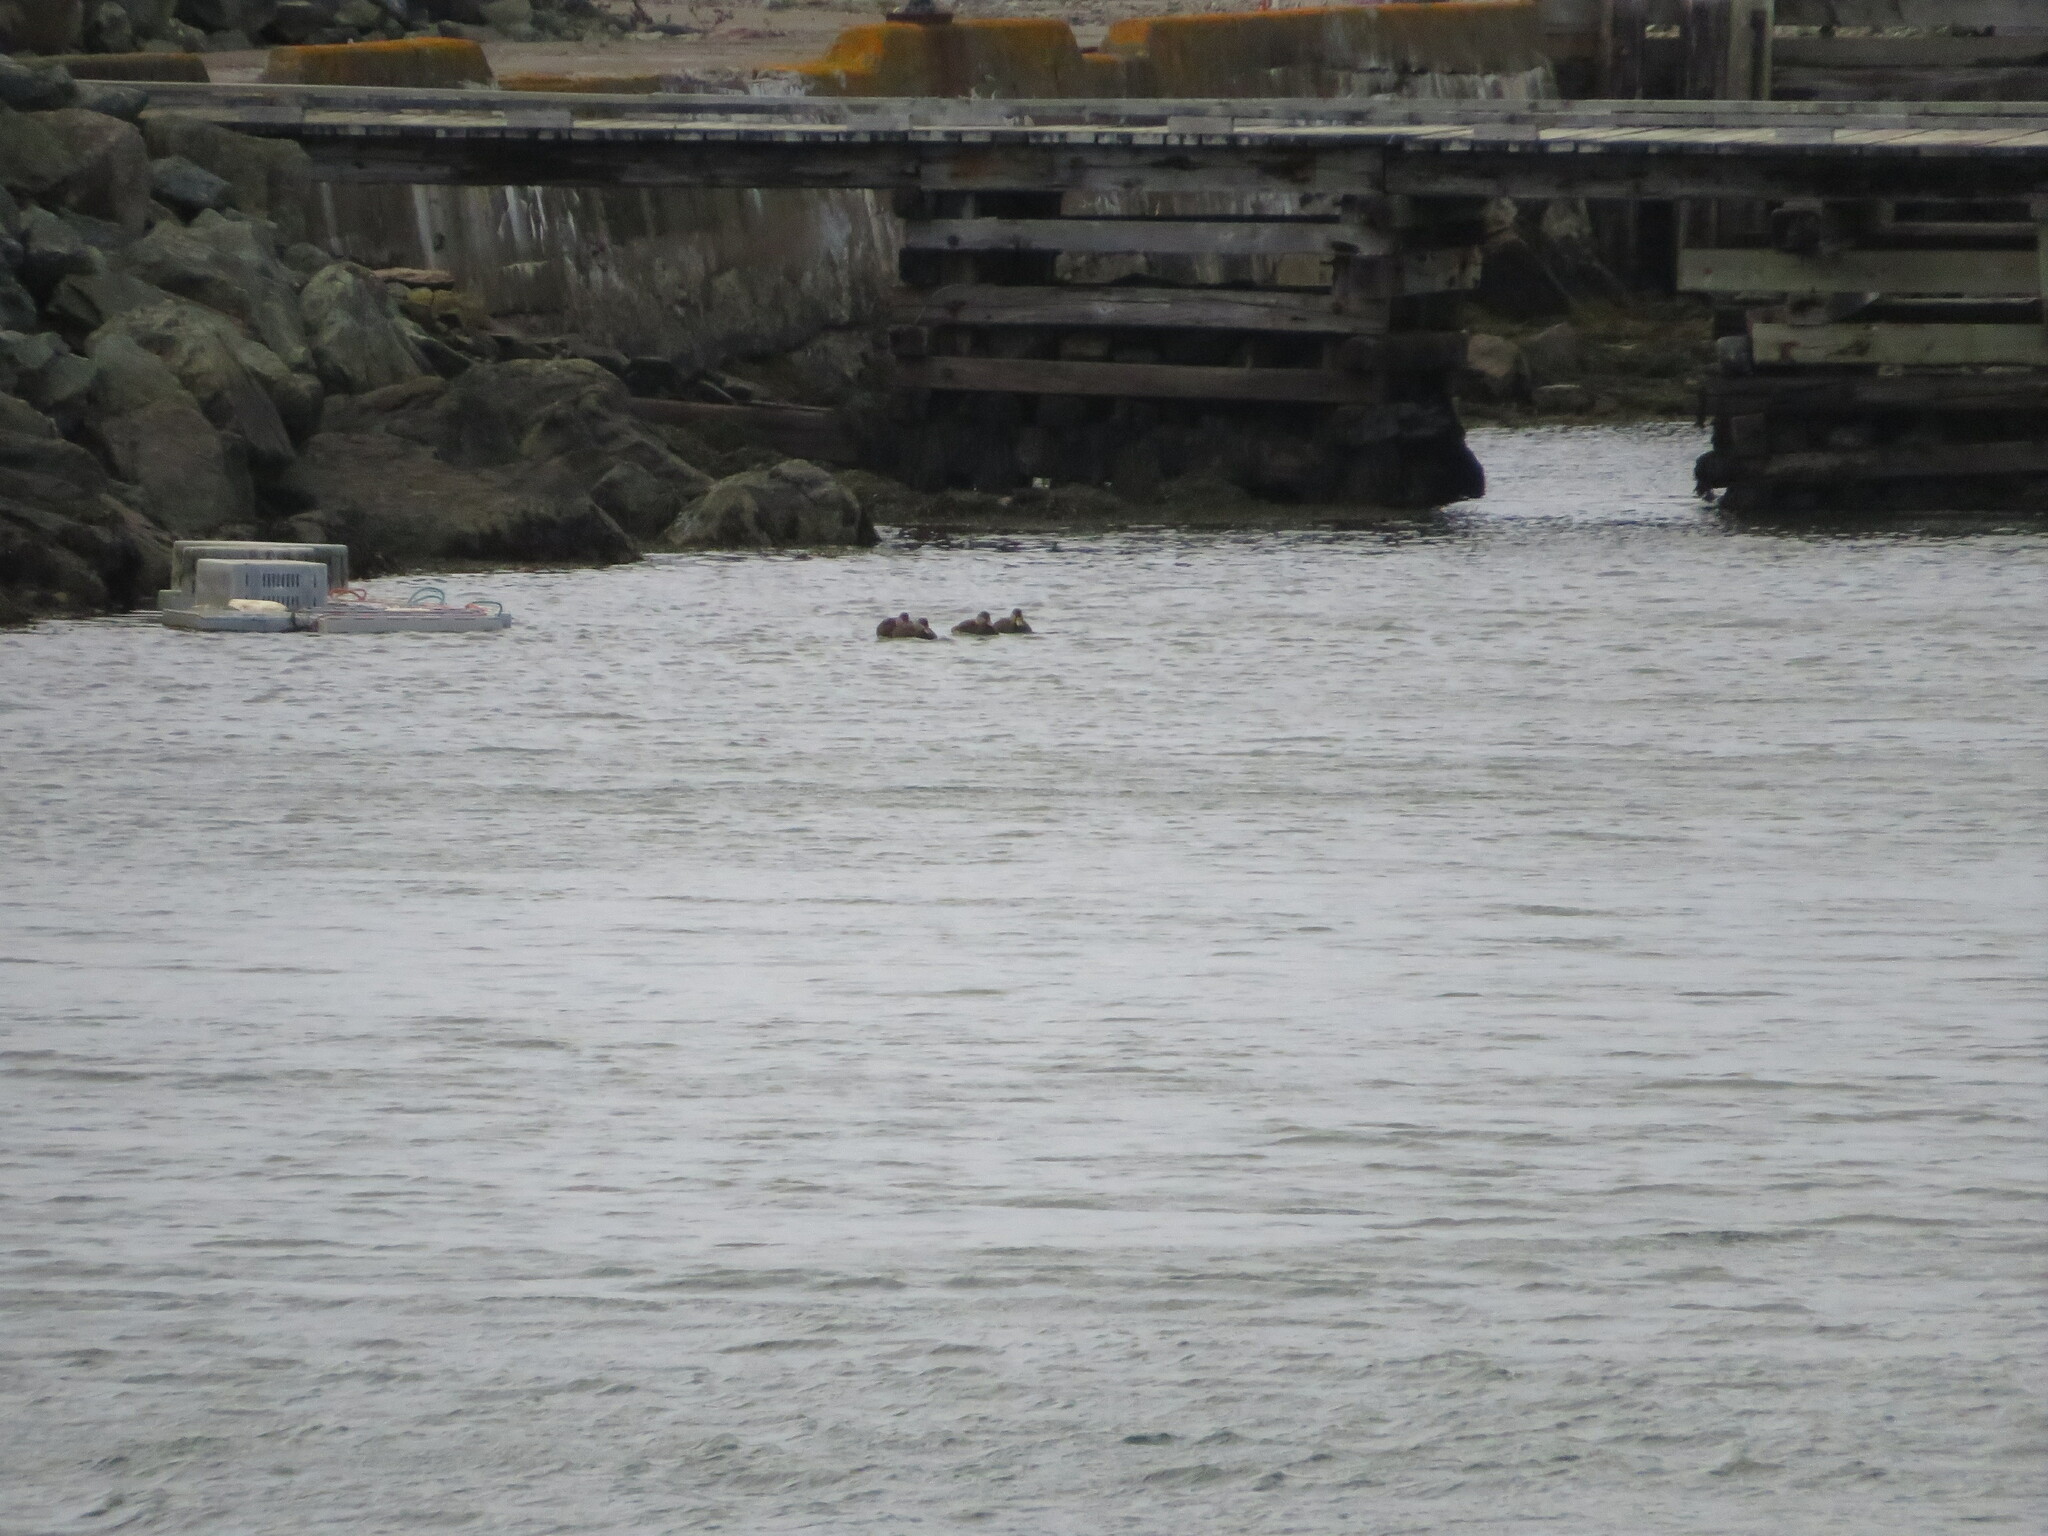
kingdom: Animalia
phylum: Chordata
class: Aves
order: Anseriformes
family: Anatidae
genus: Anas
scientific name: Anas rubripes
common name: American black duck
